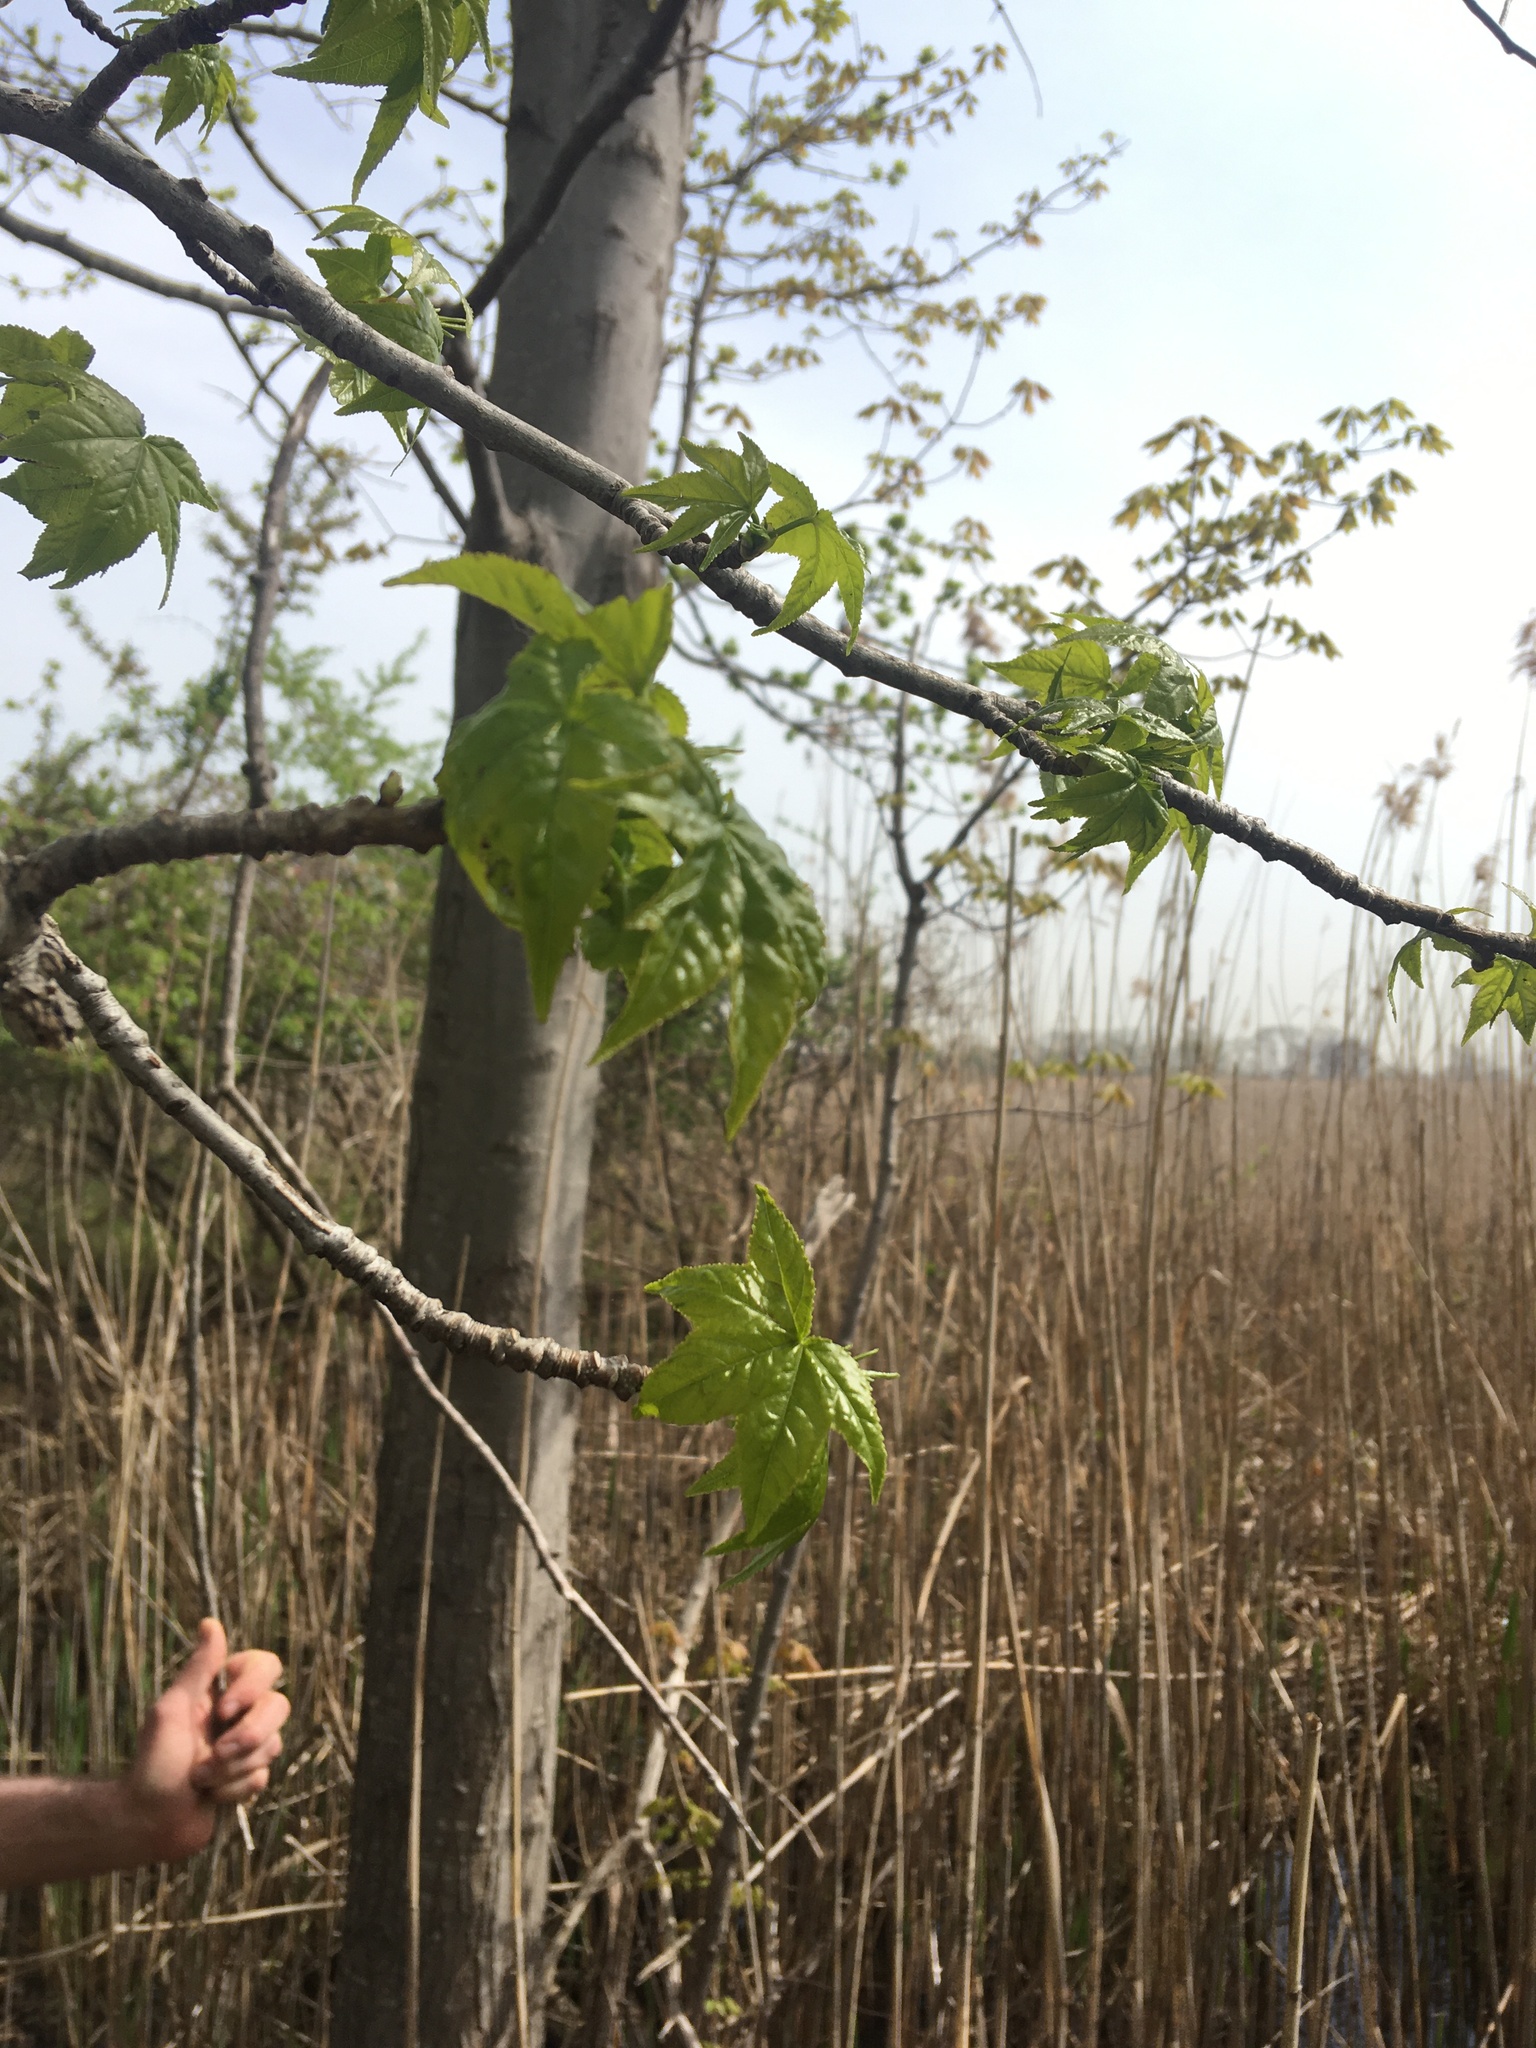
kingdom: Plantae
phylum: Tracheophyta
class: Magnoliopsida
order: Saxifragales
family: Altingiaceae
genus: Liquidambar
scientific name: Liquidambar styraciflua
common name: Sweet gum
